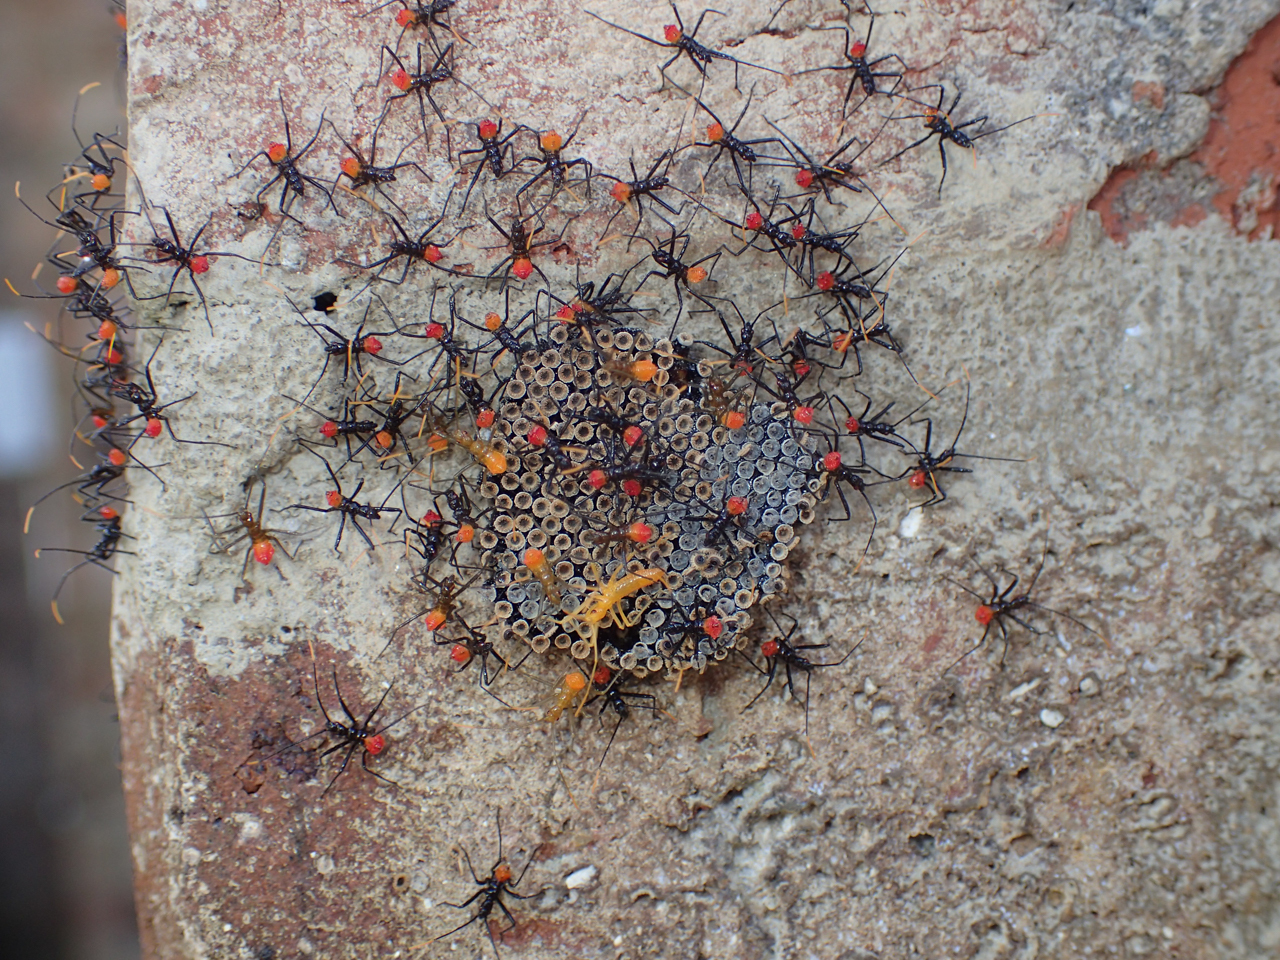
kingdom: Animalia
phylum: Arthropoda
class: Insecta
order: Hemiptera
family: Reduviidae
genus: Arilus
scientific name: Arilus cristatus
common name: North american wheel bug
